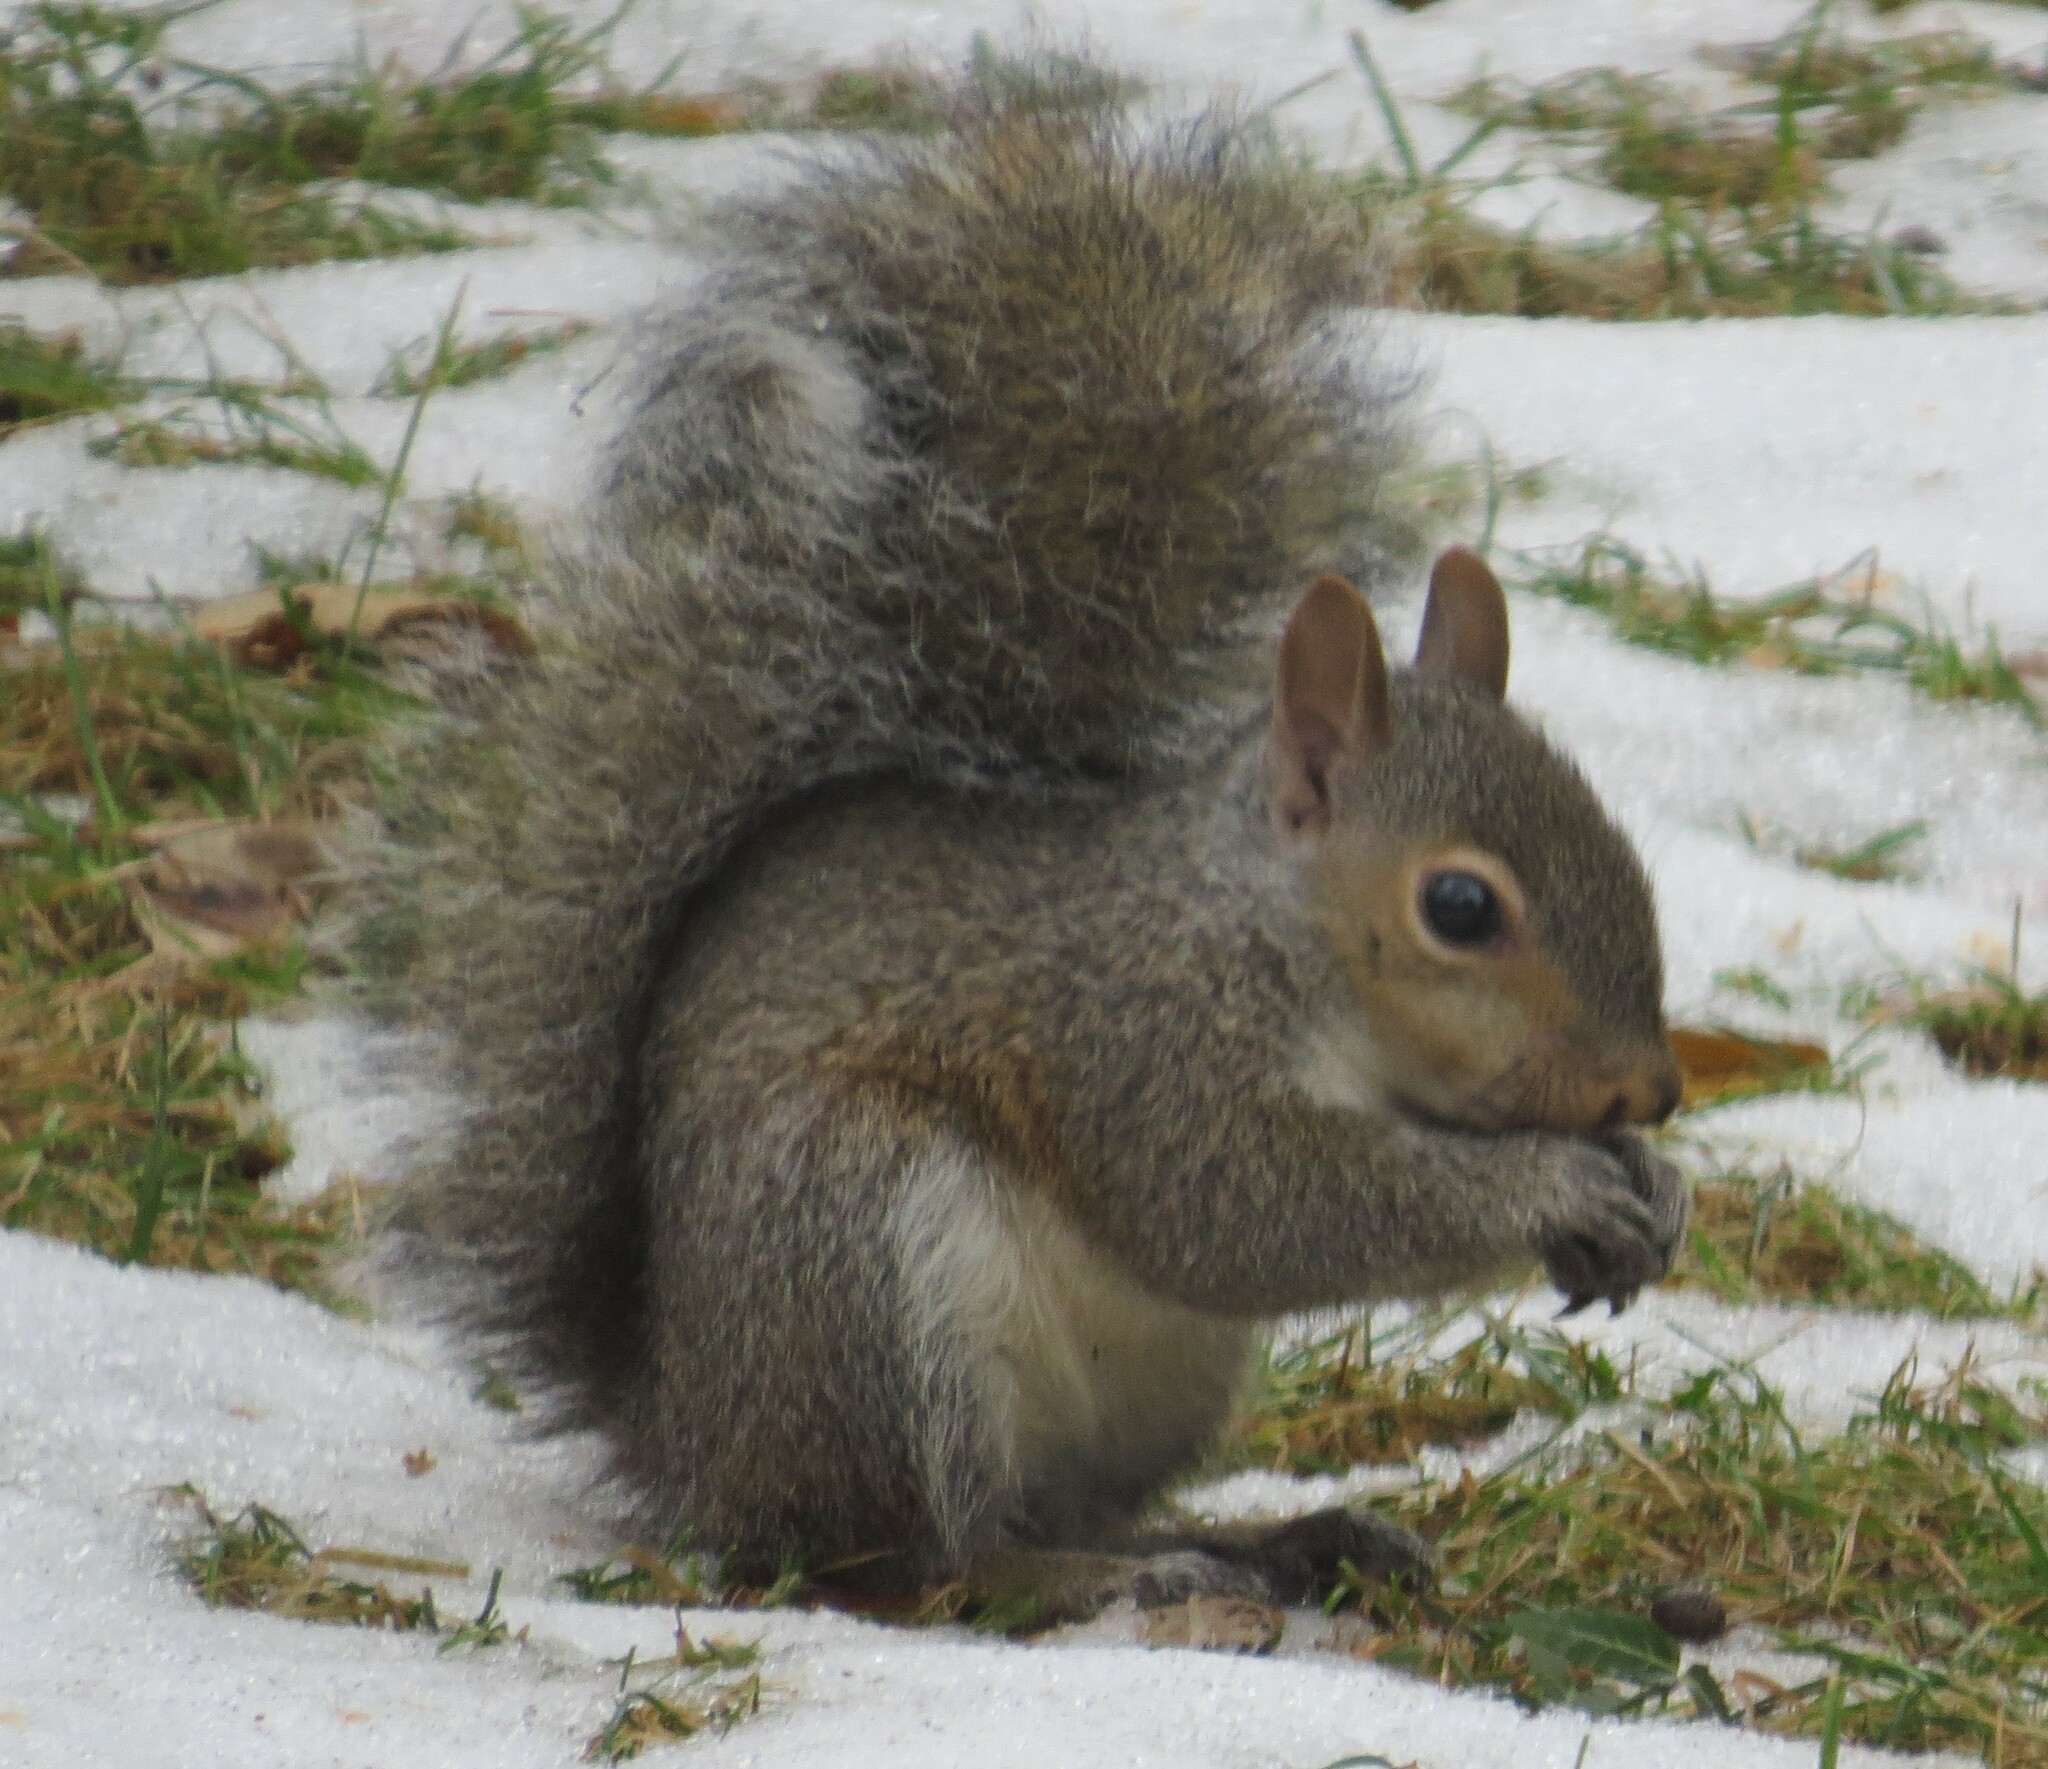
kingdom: Animalia
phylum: Chordata
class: Mammalia
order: Rodentia
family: Sciuridae
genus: Sciurus
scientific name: Sciurus carolinensis
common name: Eastern gray squirrel
